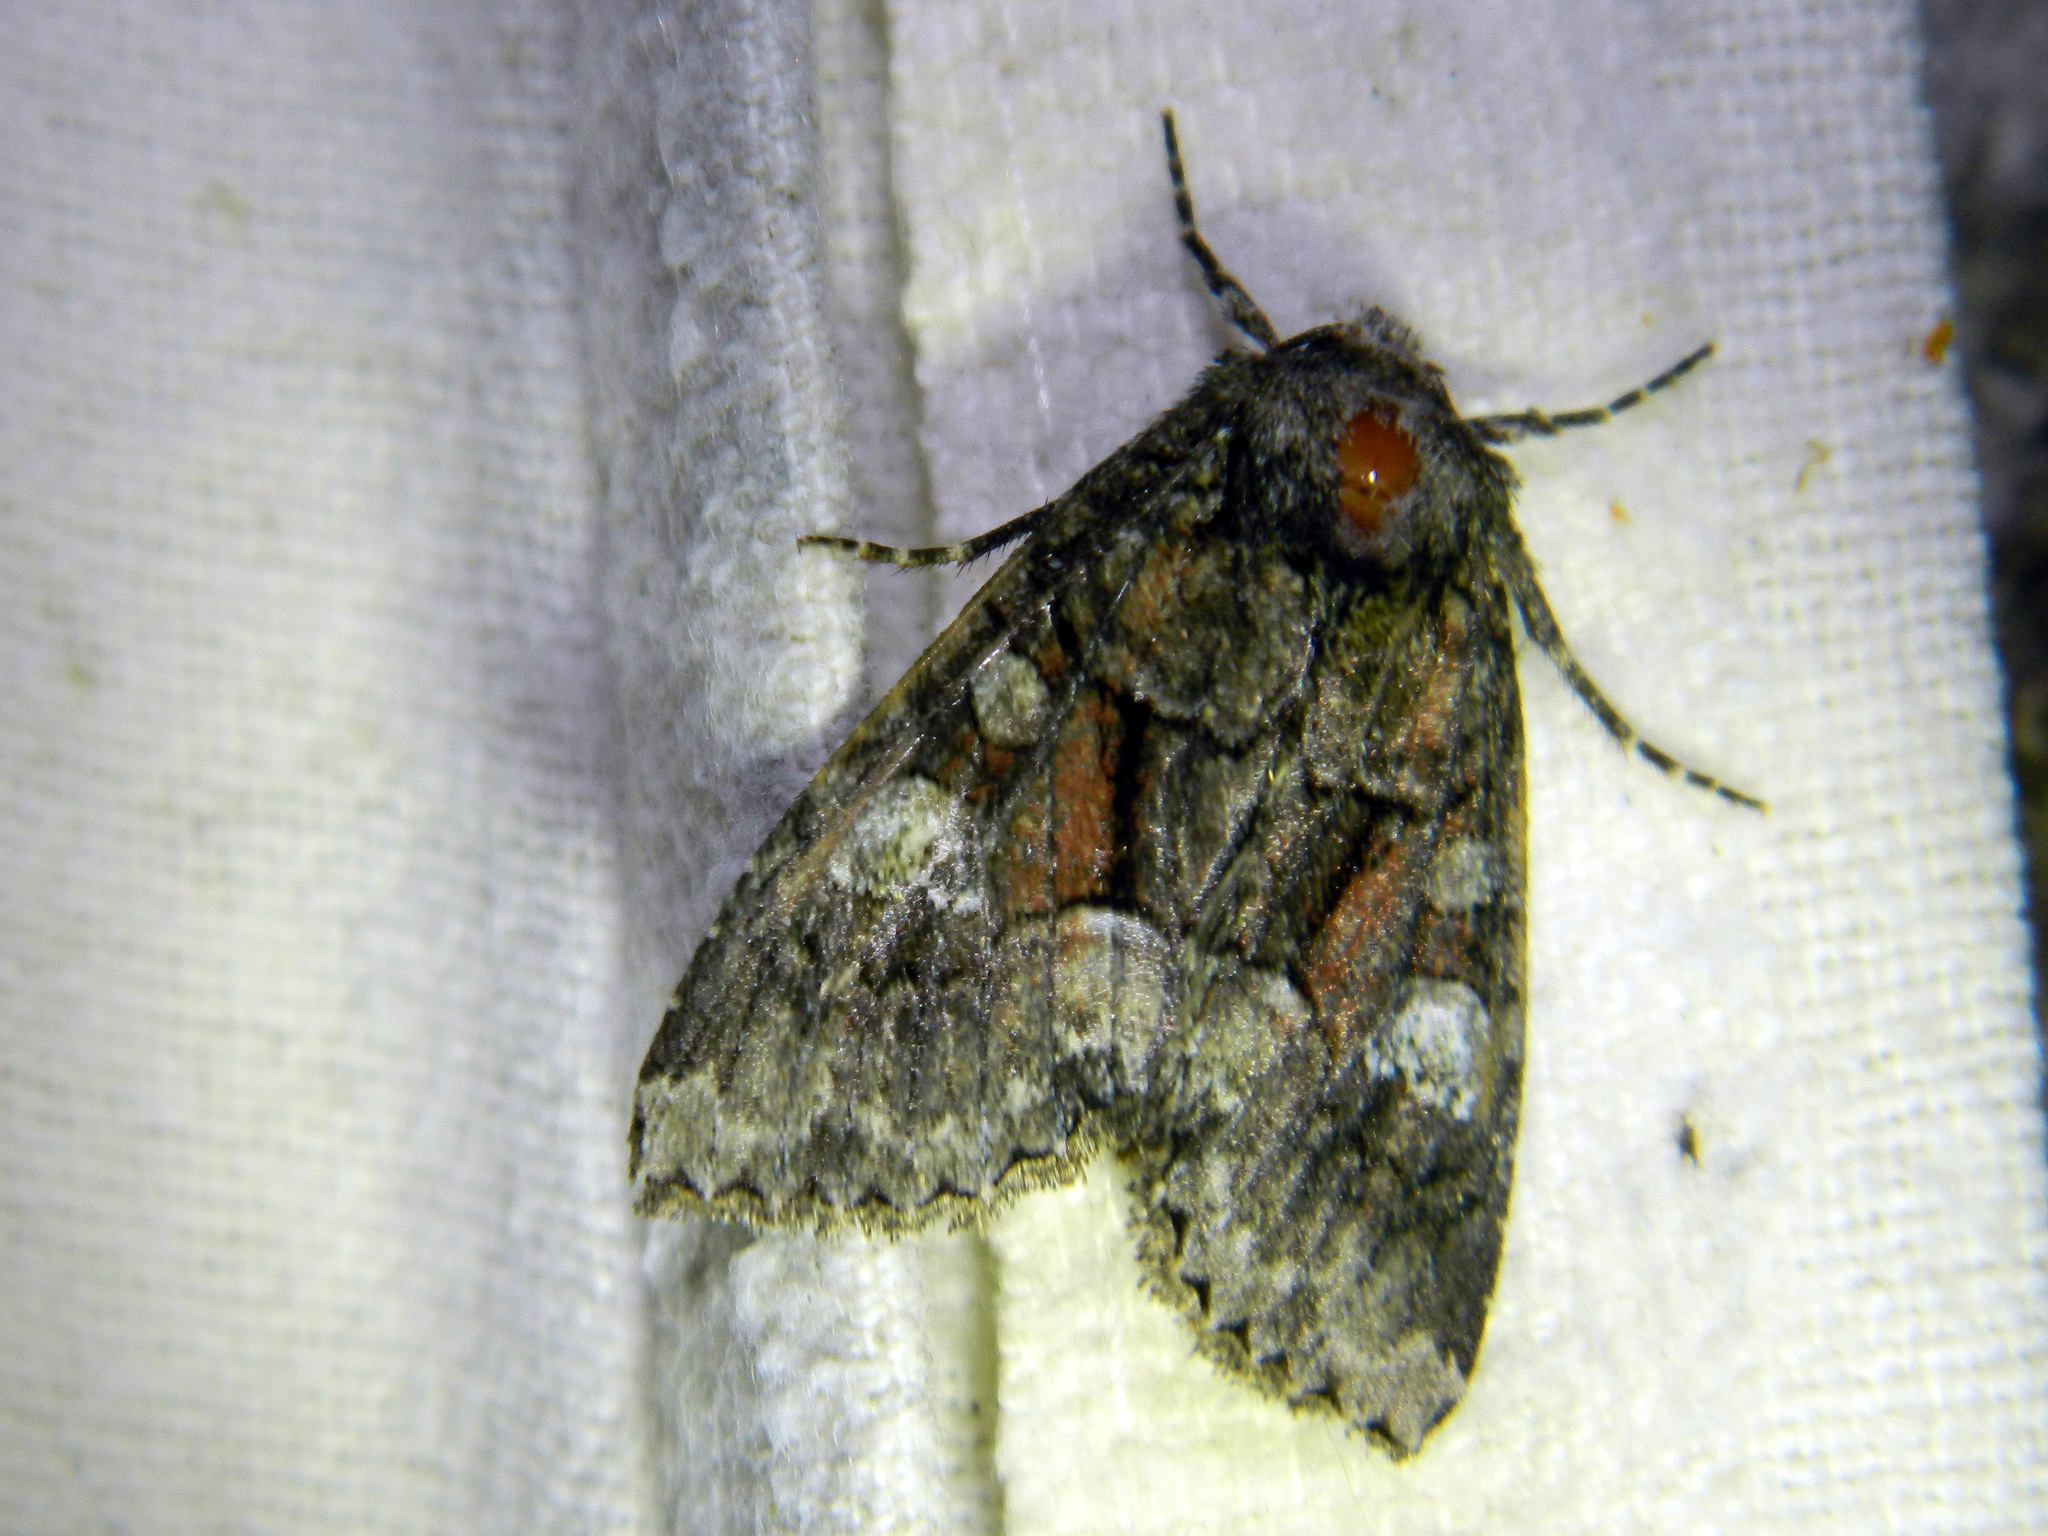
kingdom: Animalia
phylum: Arthropoda
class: Insecta
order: Lepidoptera
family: Noctuidae
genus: Fishia
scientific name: Fishia illocata
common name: Wandering brocade moth
